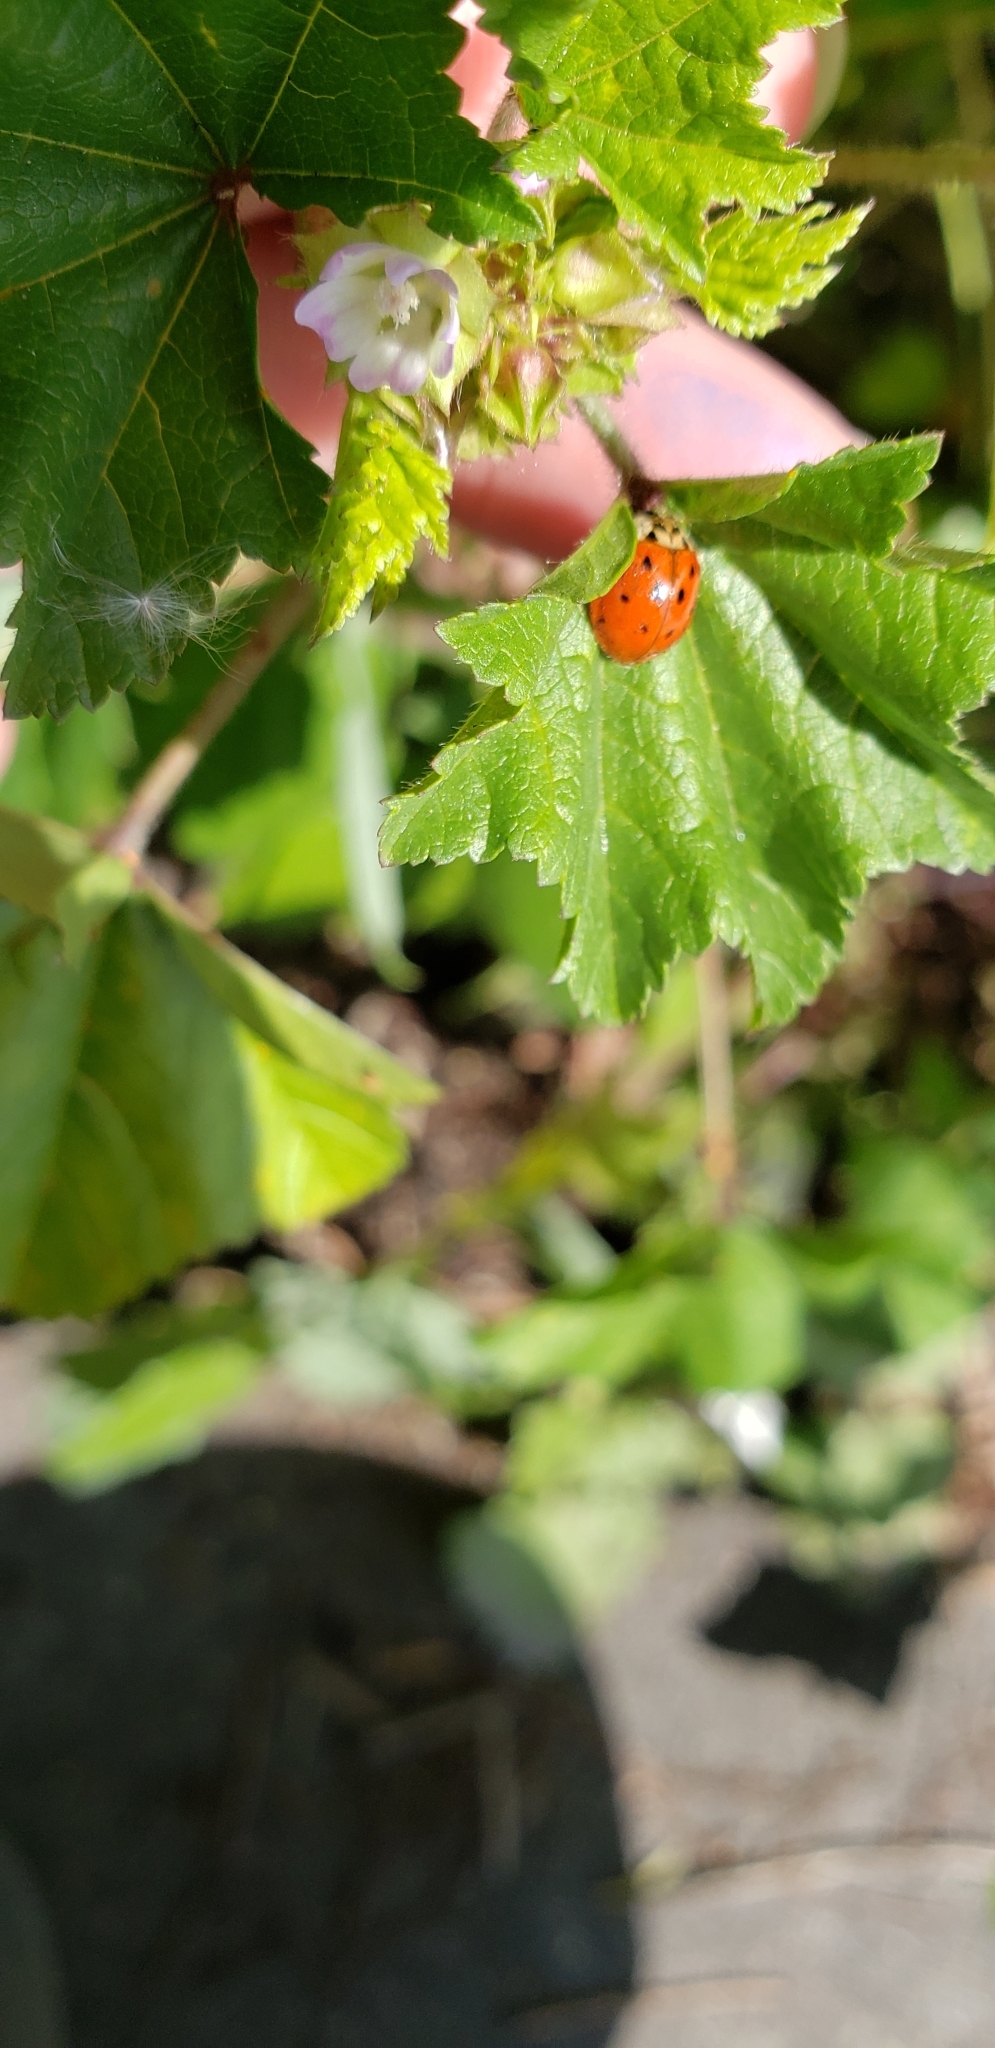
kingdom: Animalia
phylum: Arthropoda
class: Insecta
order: Coleoptera
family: Coccinellidae
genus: Harmonia
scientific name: Harmonia axyridis
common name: Harlequin ladybird
